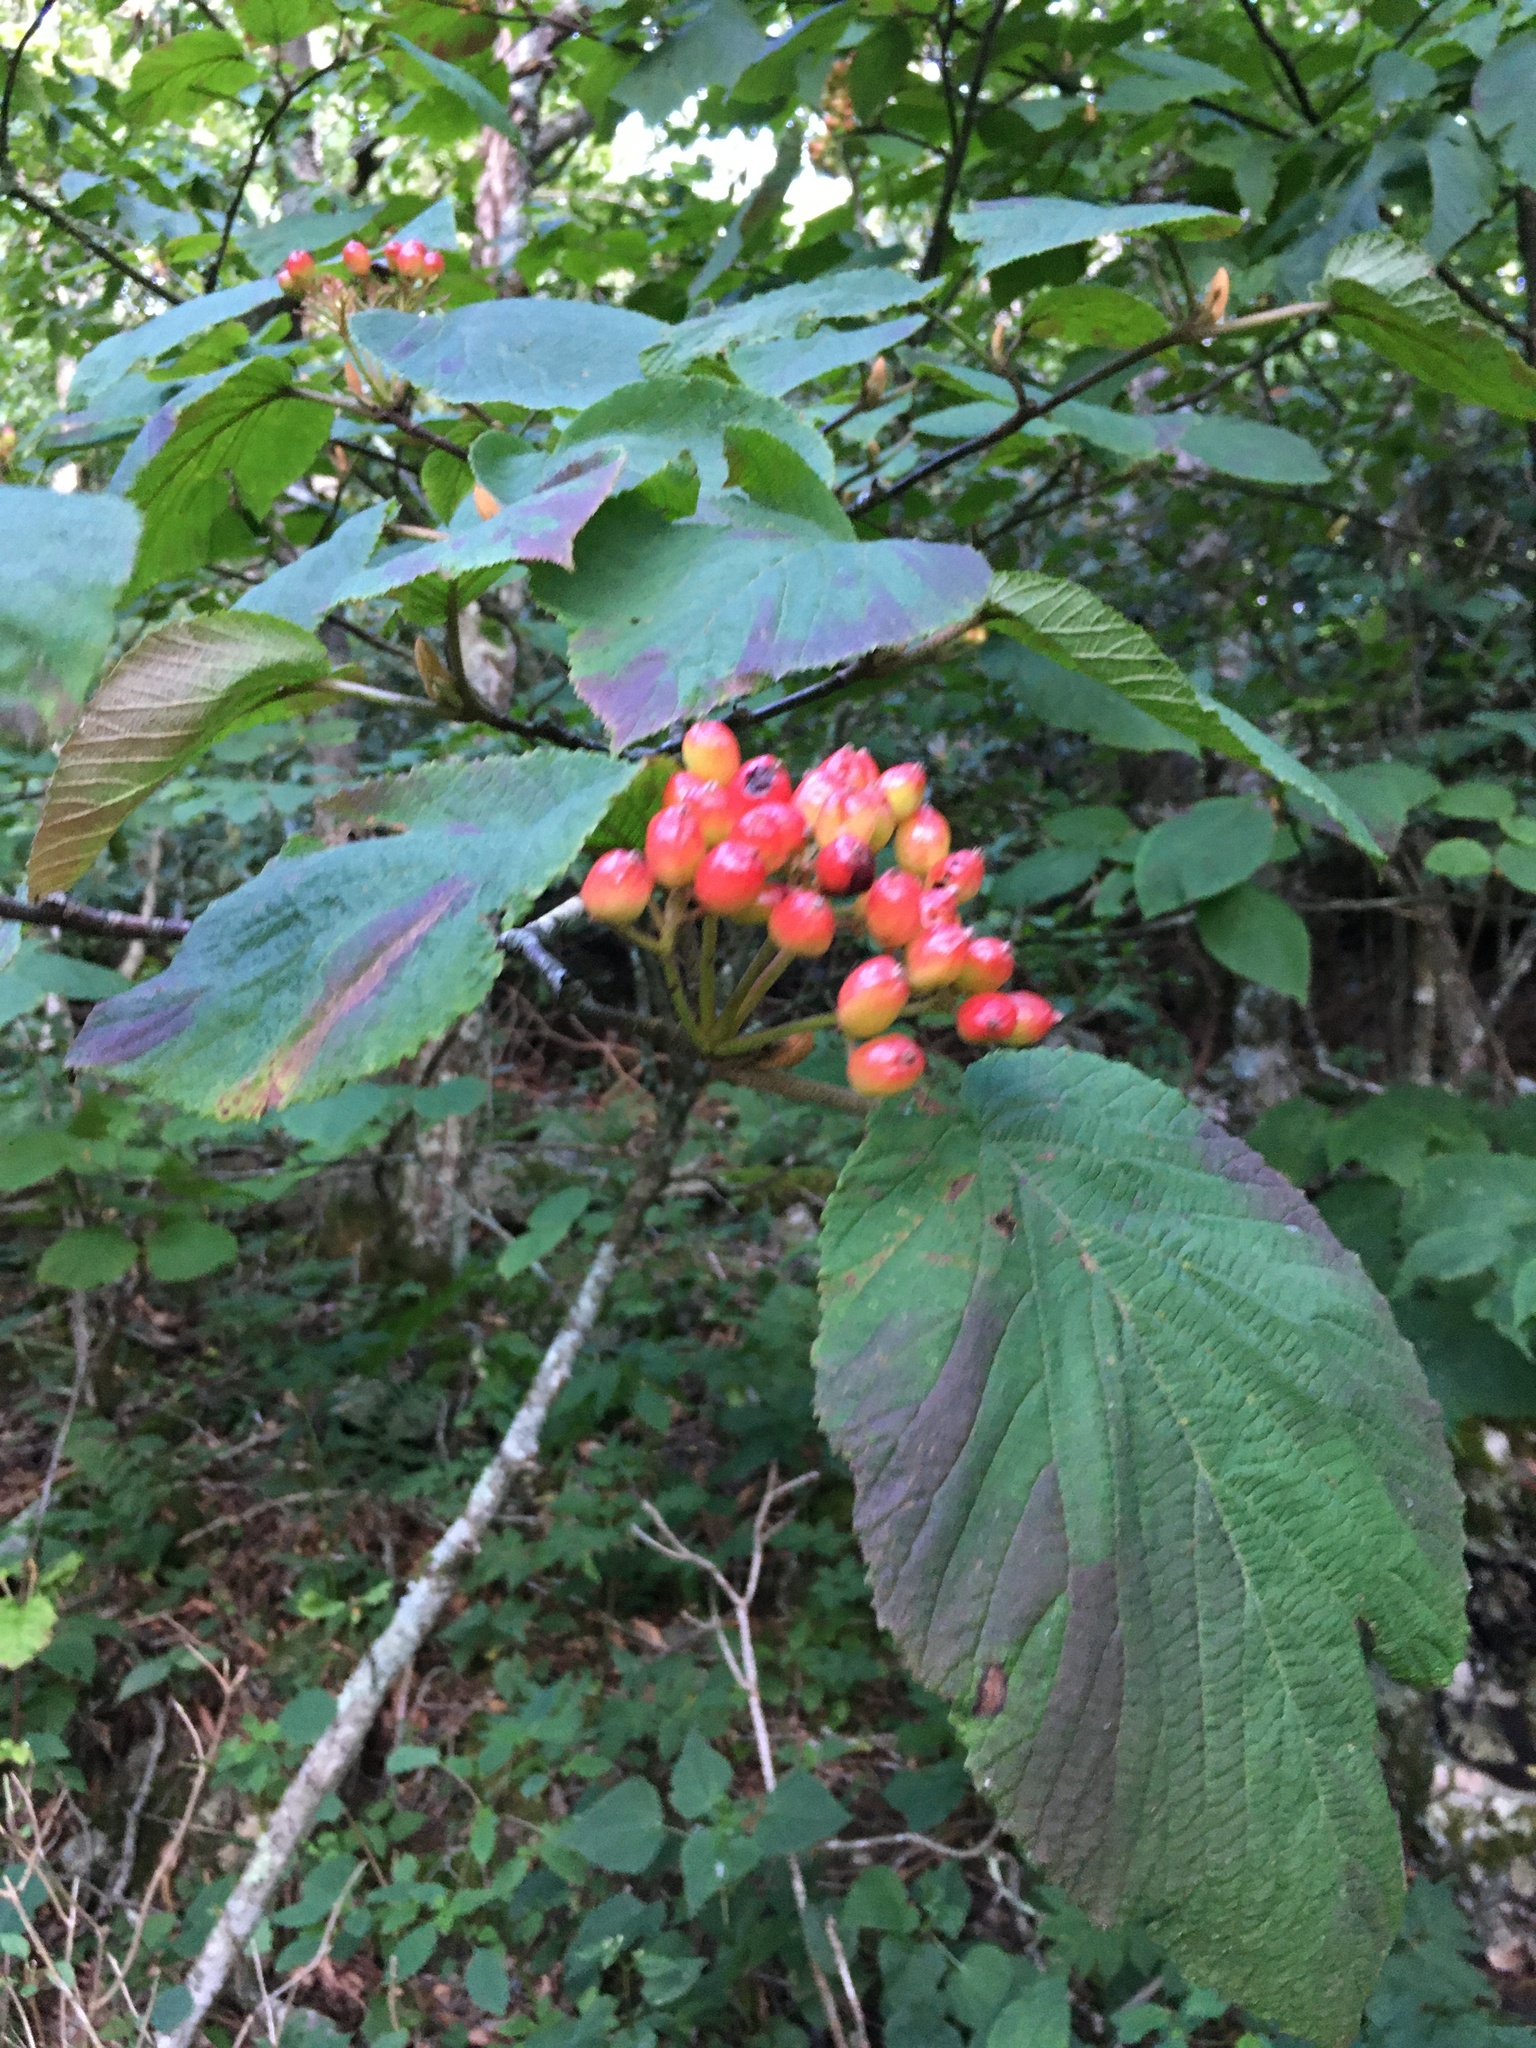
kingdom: Plantae
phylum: Tracheophyta
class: Magnoliopsida
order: Dipsacales
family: Viburnaceae
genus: Viburnum
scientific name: Viburnum lantanoides
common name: Hobblebush
